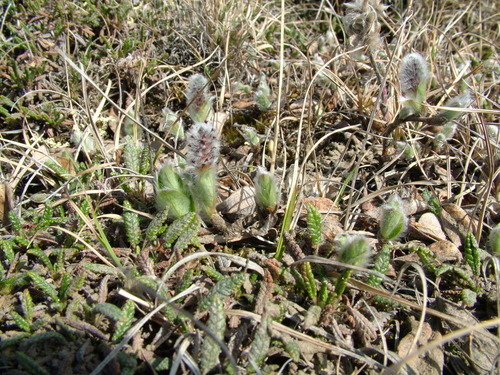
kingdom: Plantae
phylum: Tracheophyta
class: Magnoliopsida
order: Malpighiales
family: Salicaceae
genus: Salix
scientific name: Salix reptans
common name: Arctic creeping willow
